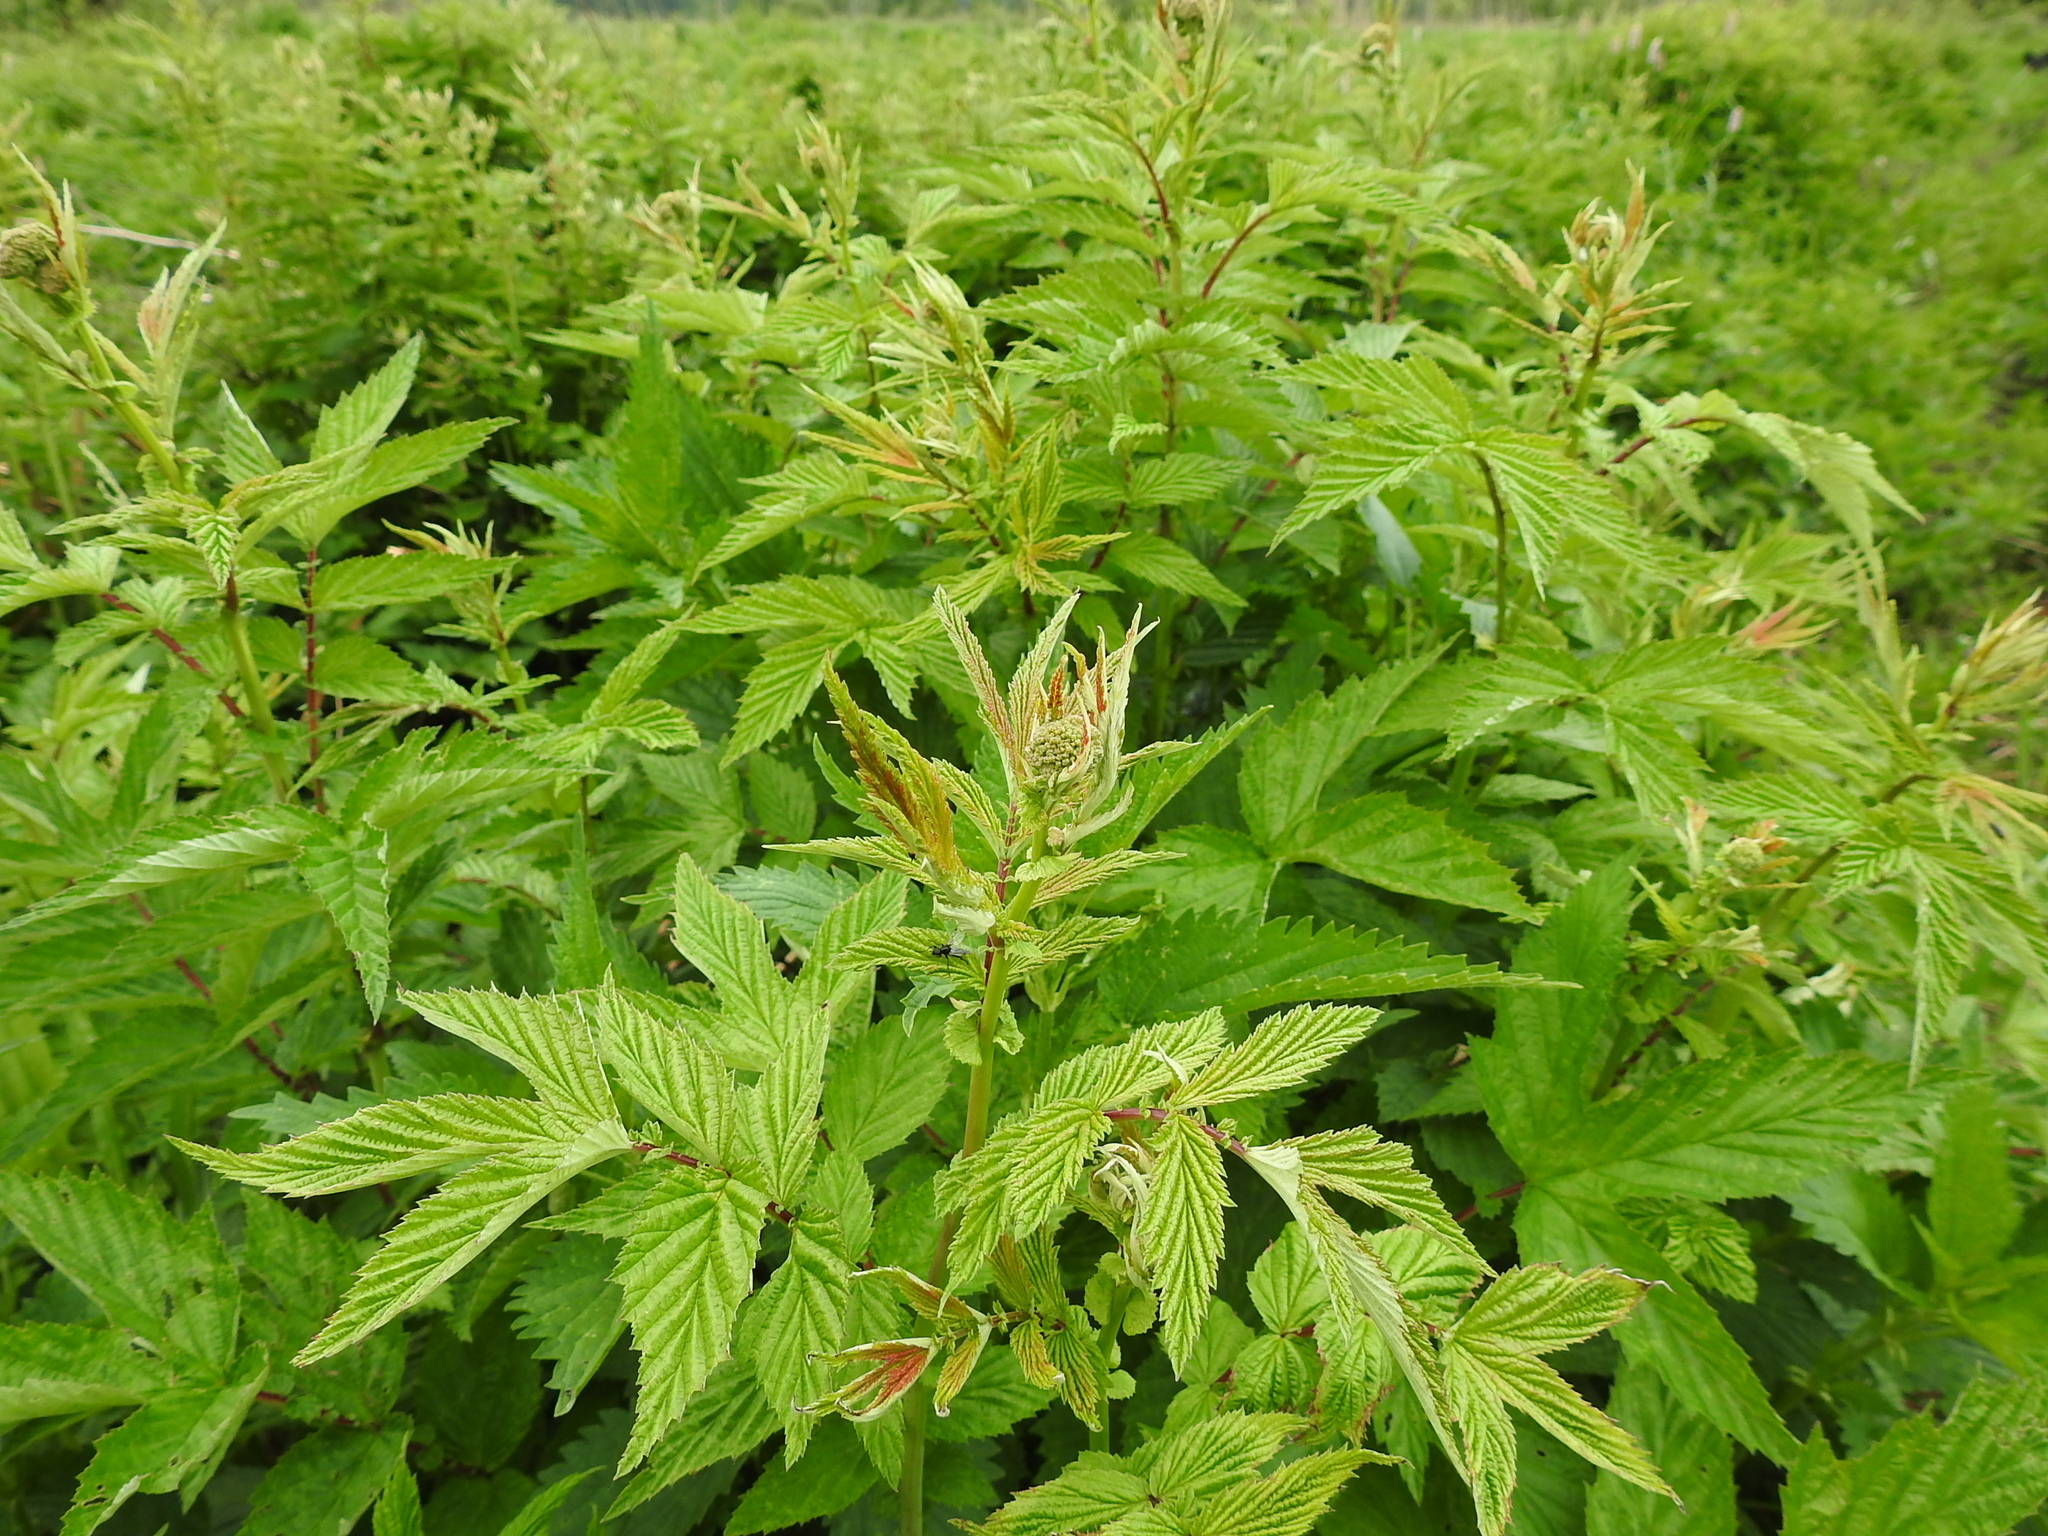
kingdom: Plantae
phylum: Tracheophyta
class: Magnoliopsida
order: Rosales
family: Rosaceae
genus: Filipendula
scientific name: Filipendula ulmaria
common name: Meadowsweet
